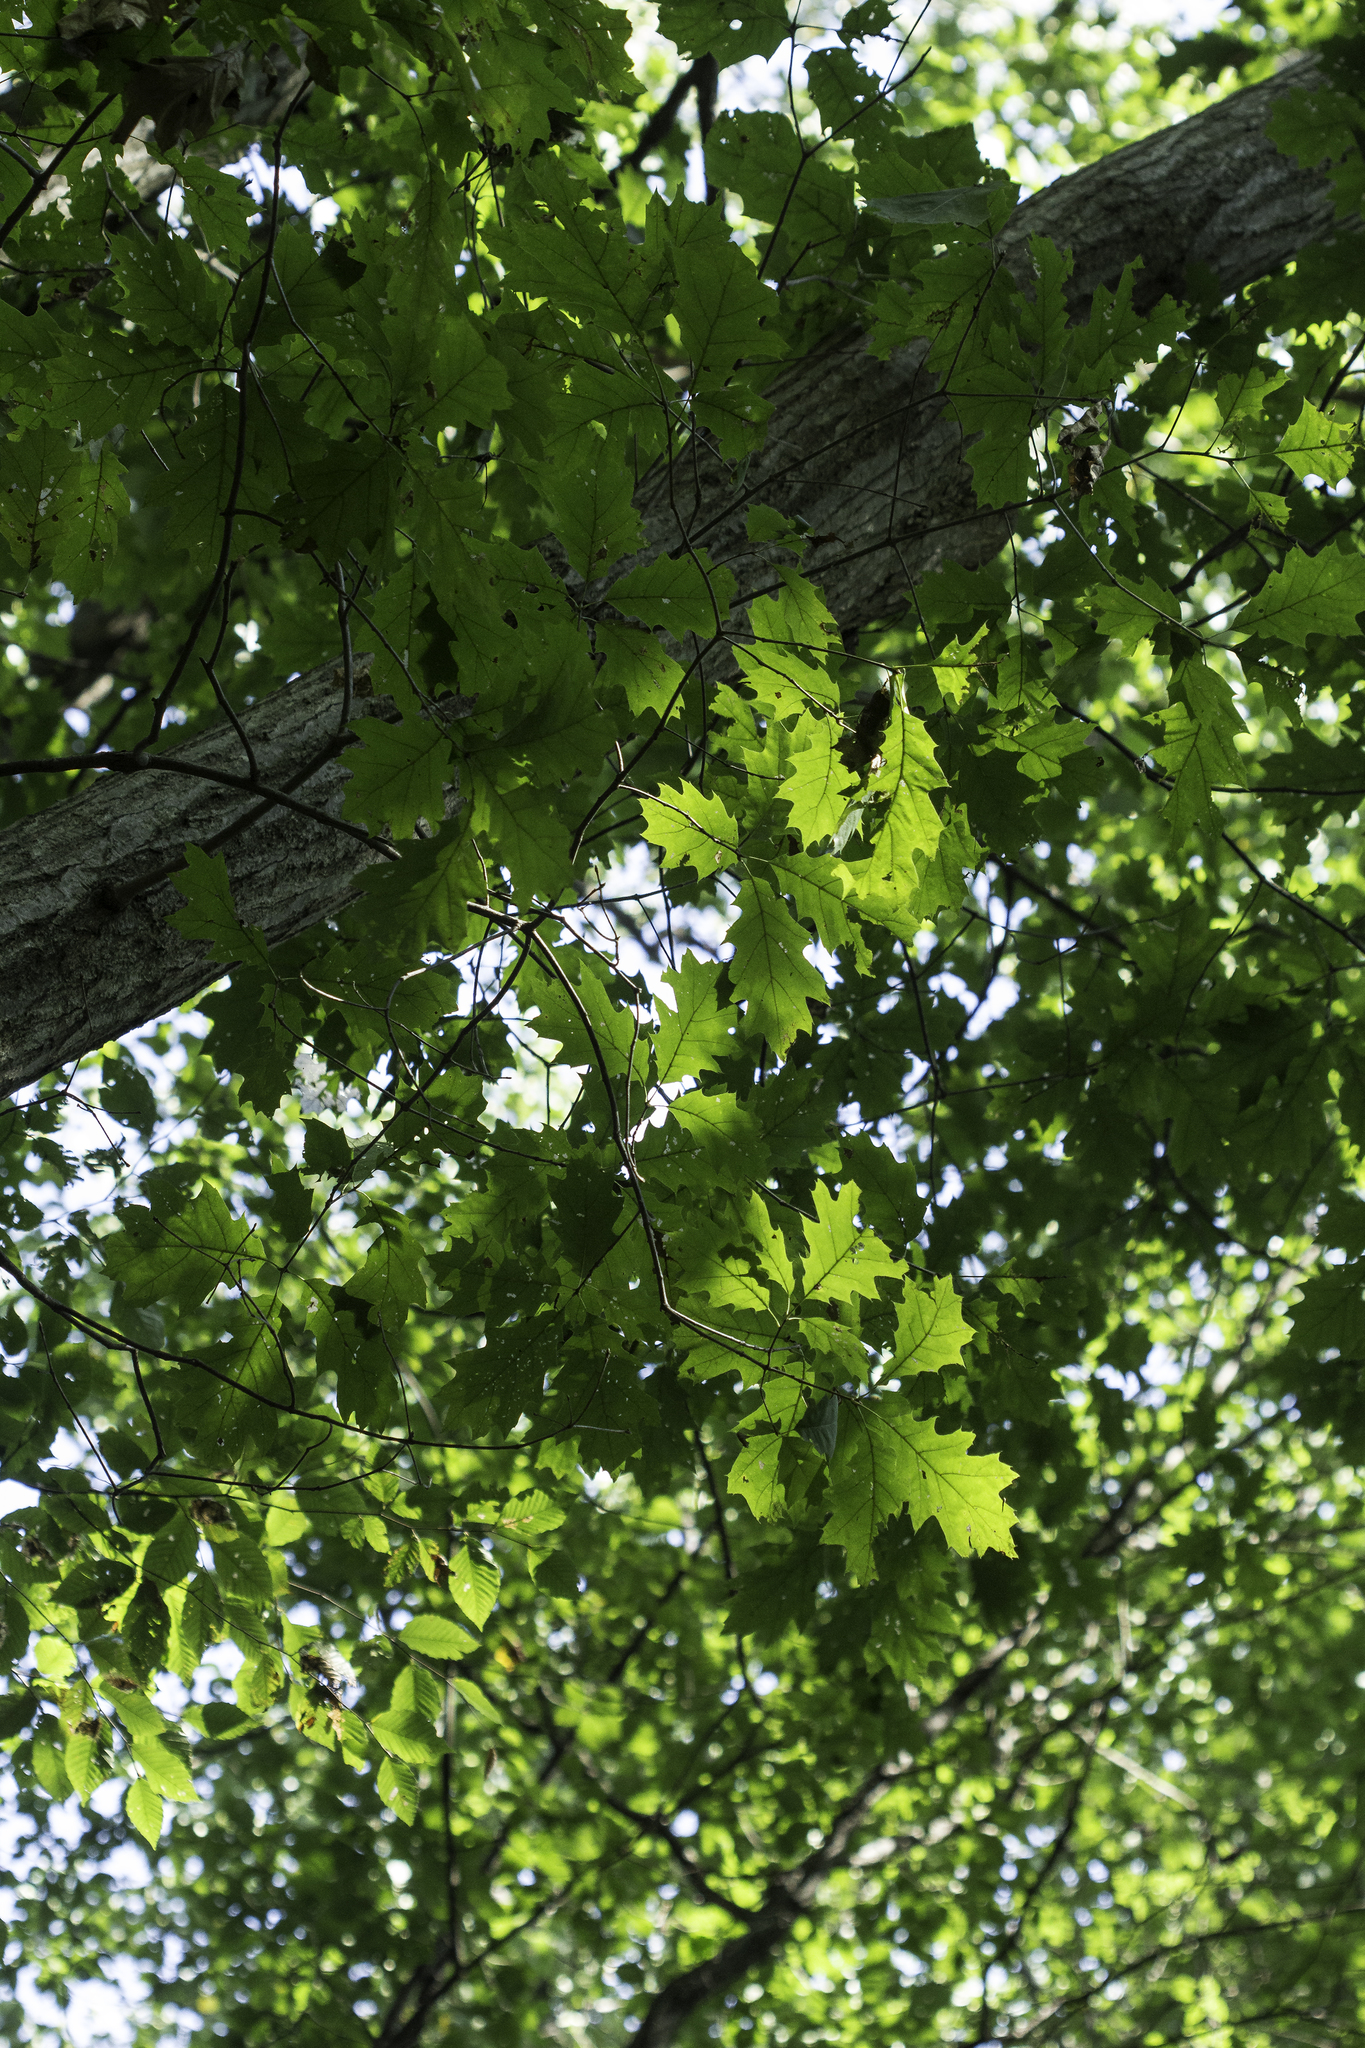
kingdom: Plantae
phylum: Tracheophyta
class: Magnoliopsida
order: Fagales
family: Fagaceae
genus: Quercus
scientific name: Quercus rubra
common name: Red oak
